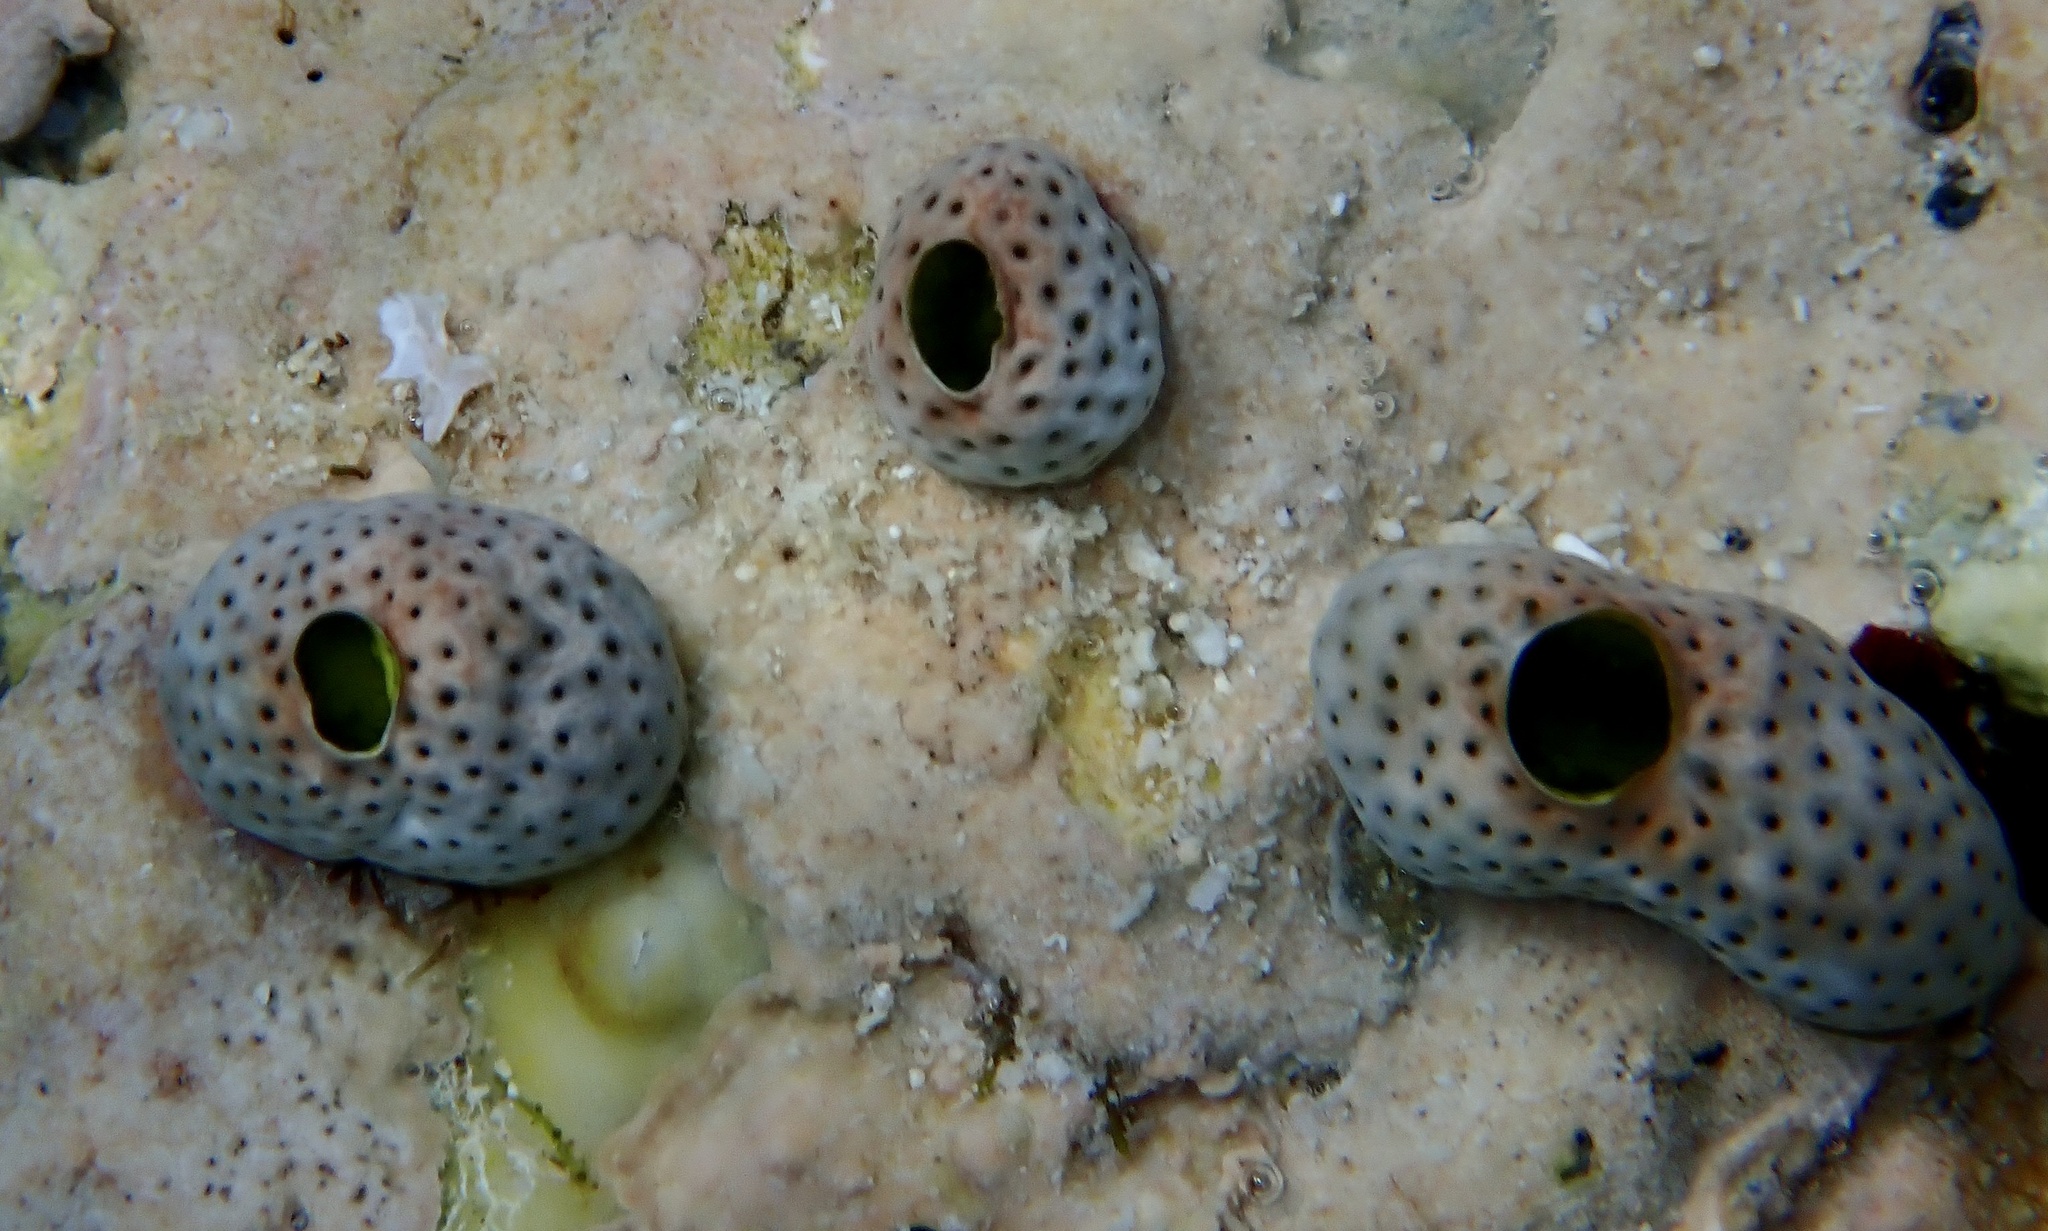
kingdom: Animalia
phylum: Chordata
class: Ascidiacea
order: Aplousobranchia
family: Didemnidae
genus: Didemnum
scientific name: Didemnum molle
